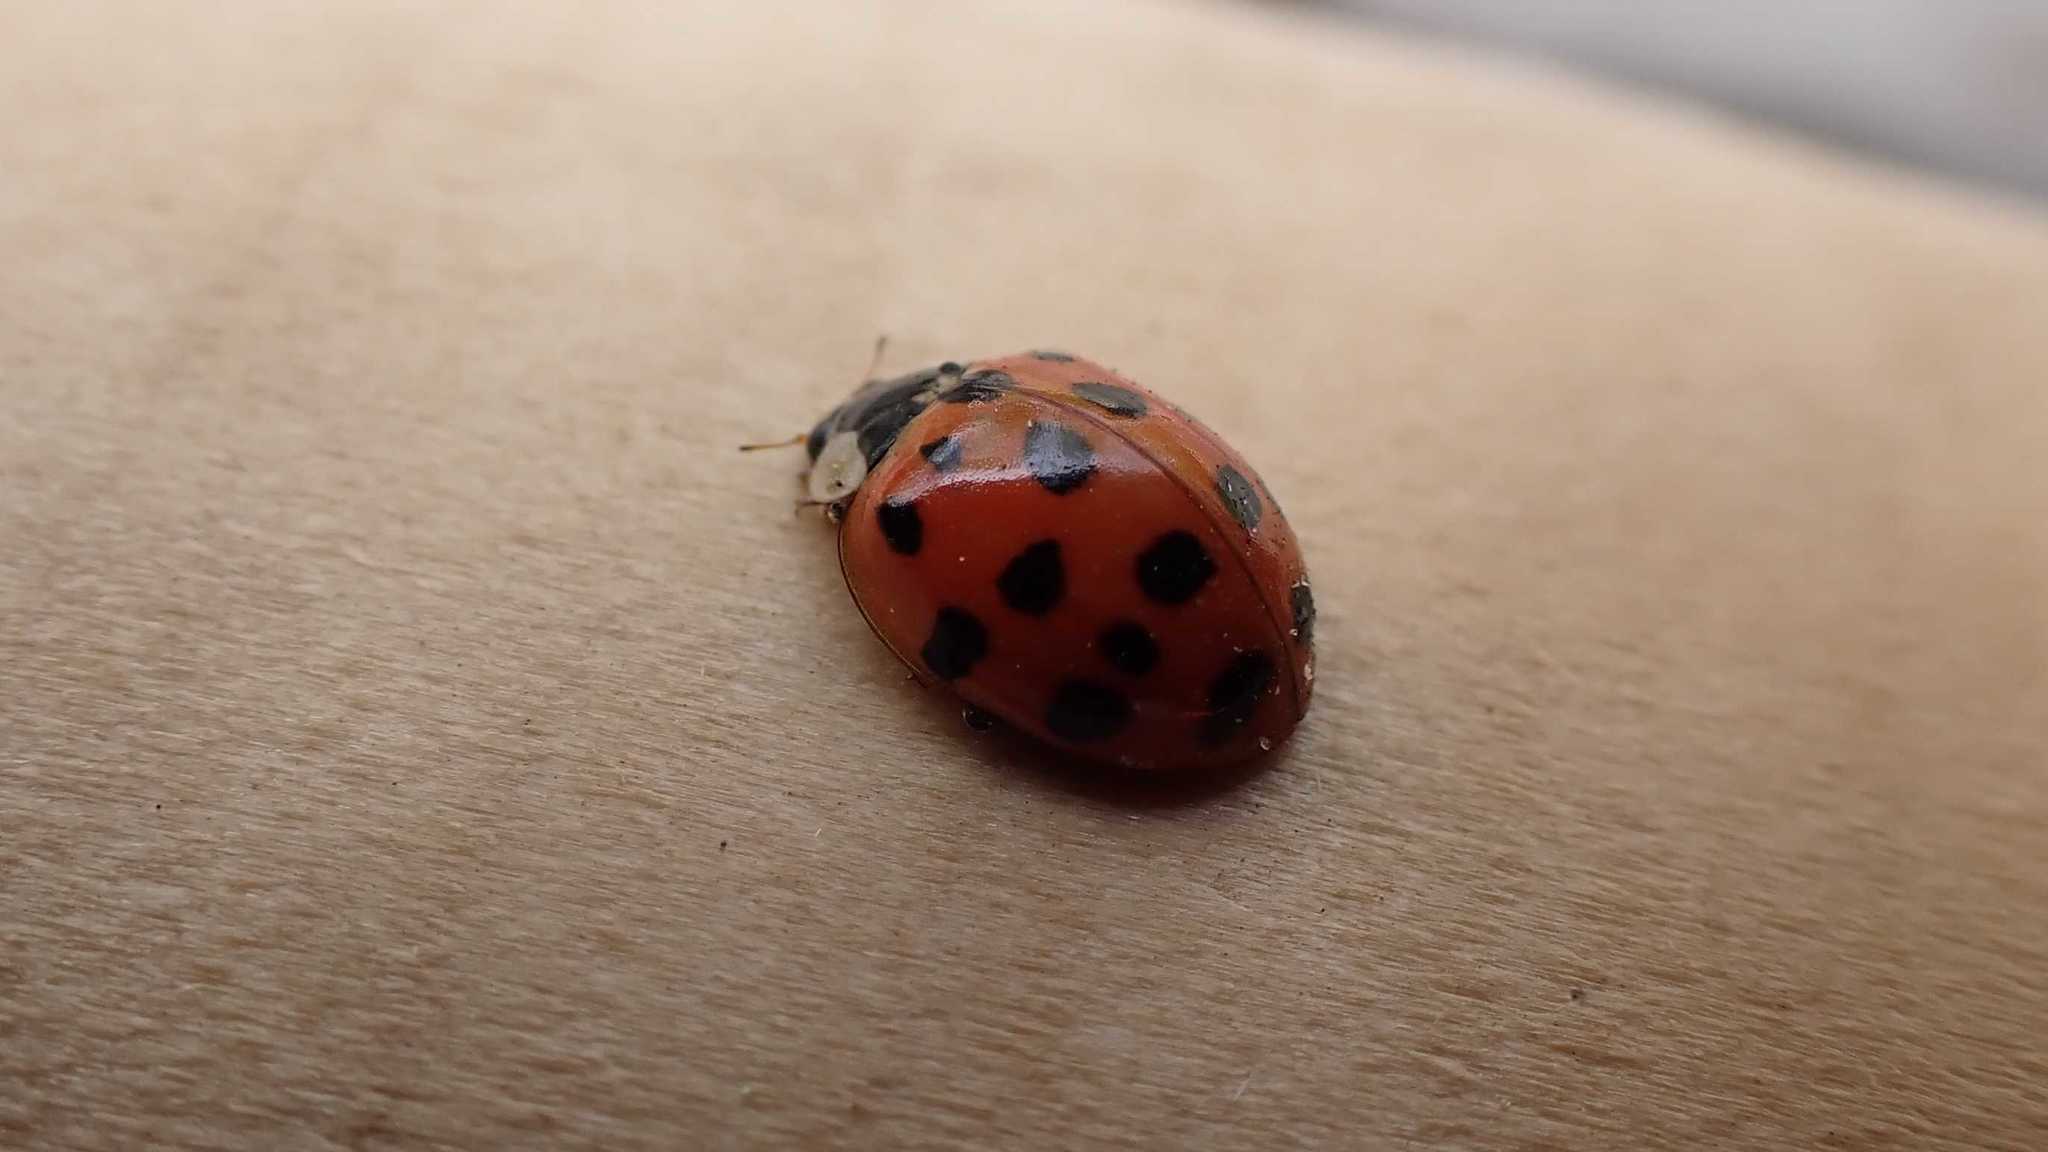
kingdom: Animalia
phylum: Arthropoda
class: Insecta
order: Coleoptera
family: Coccinellidae
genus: Harmonia
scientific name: Harmonia axyridis
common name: Harlequin ladybird
